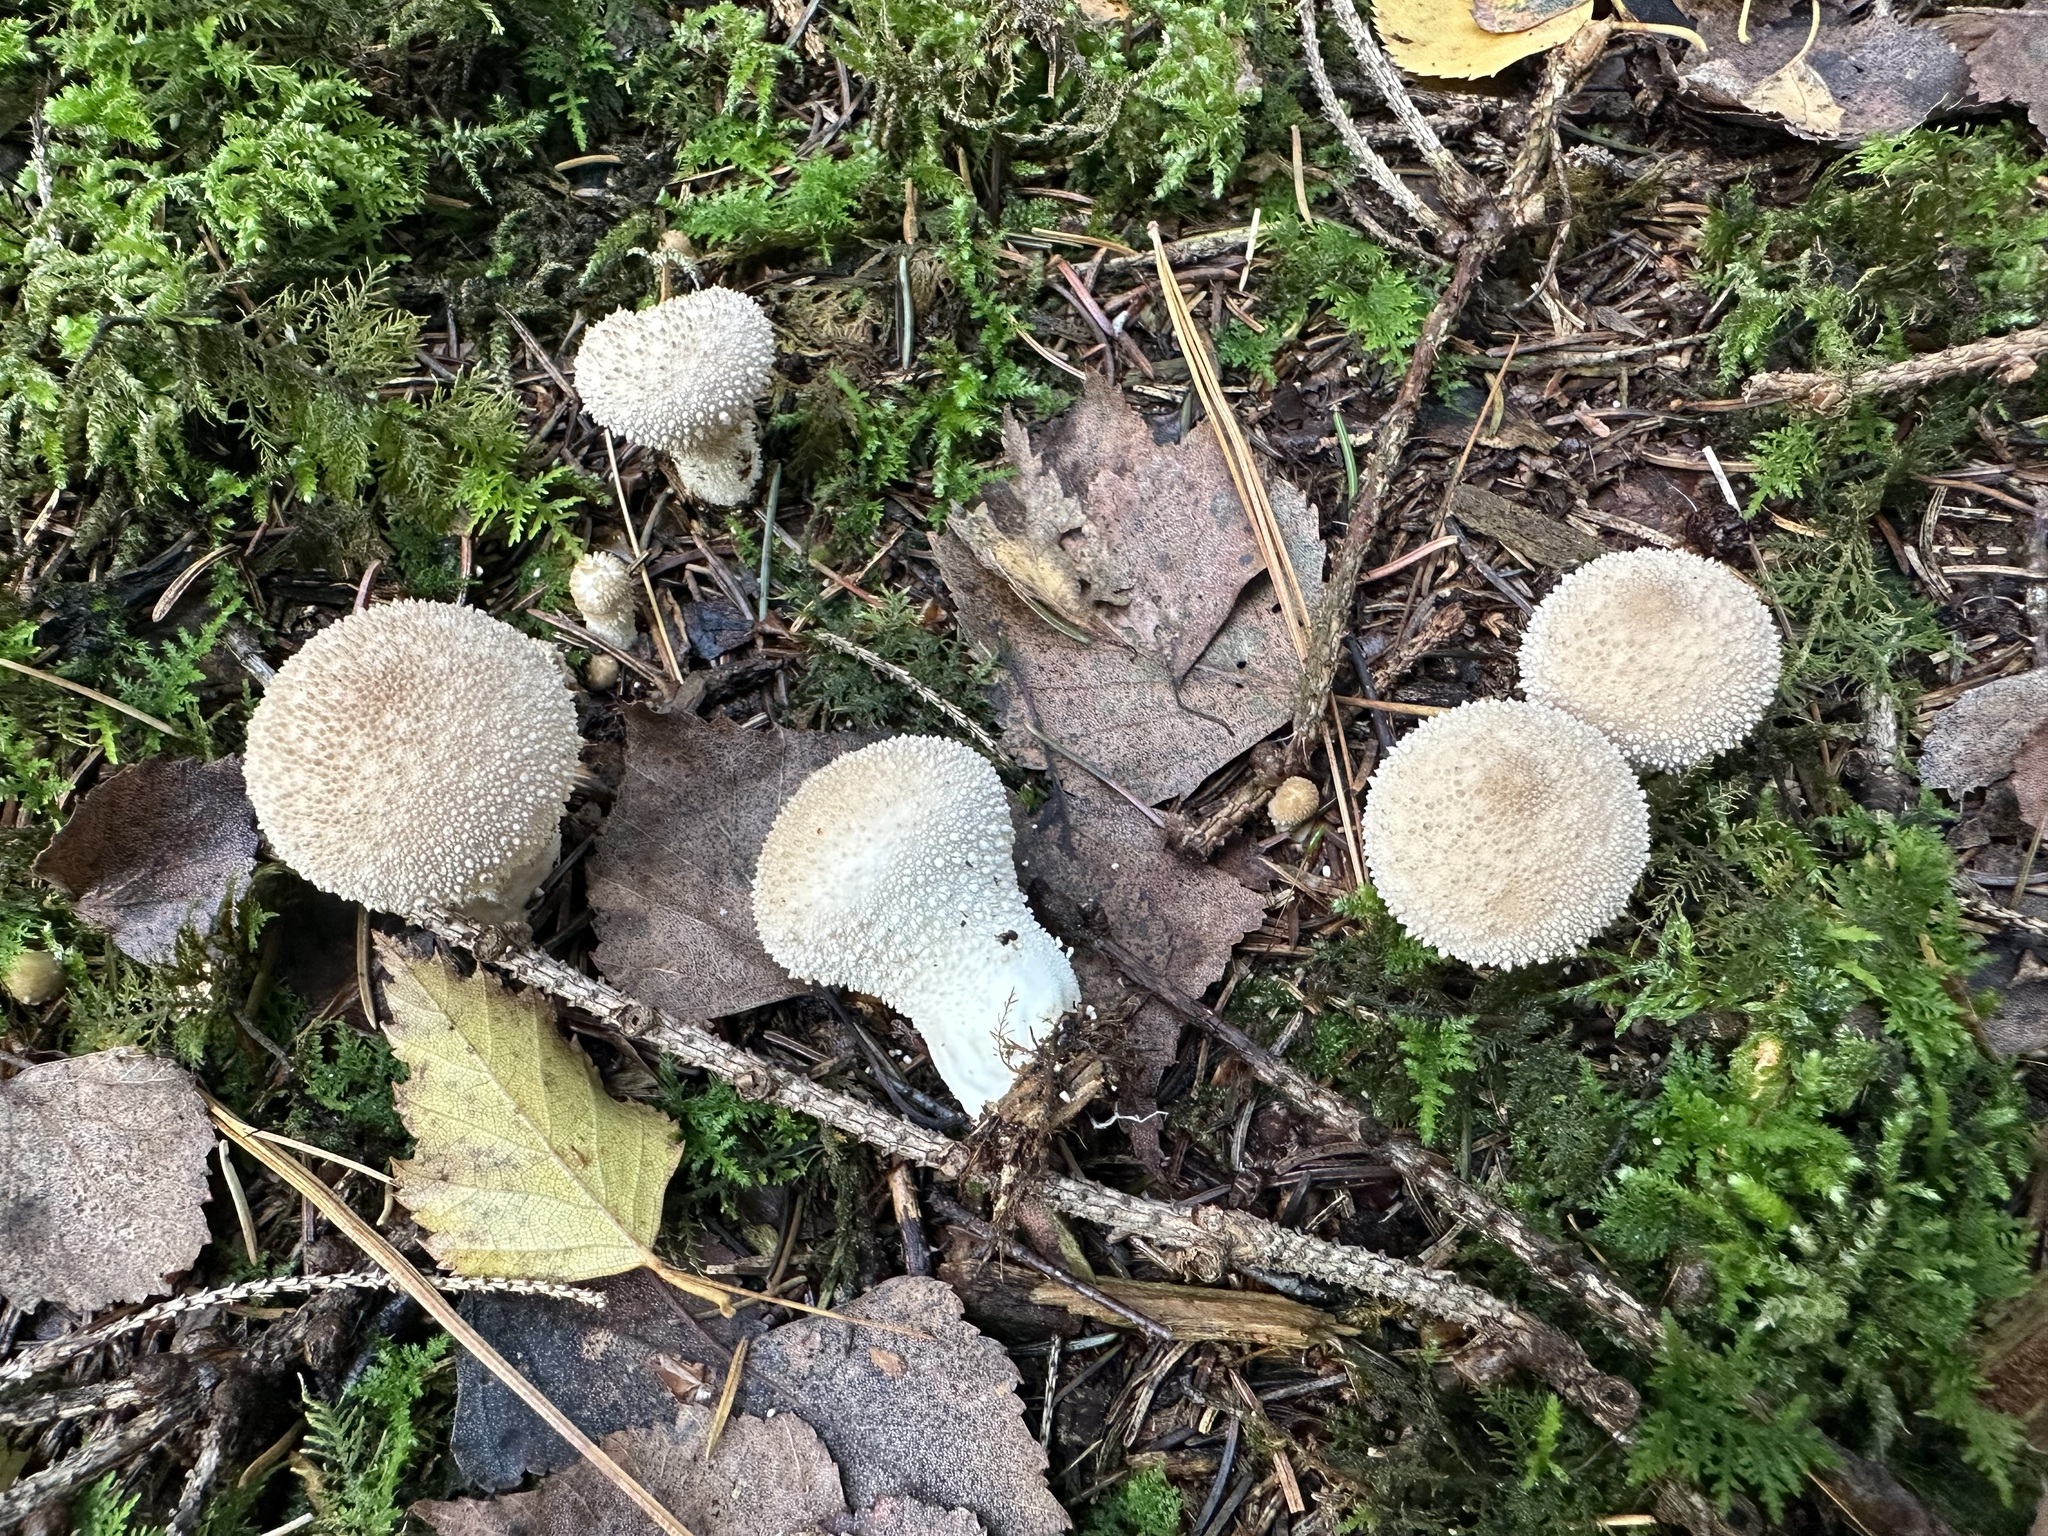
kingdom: Fungi
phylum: Basidiomycota
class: Agaricomycetes
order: Agaricales
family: Lycoperdaceae
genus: Lycoperdon
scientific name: Lycoperdon perlatum
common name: Common puffball
